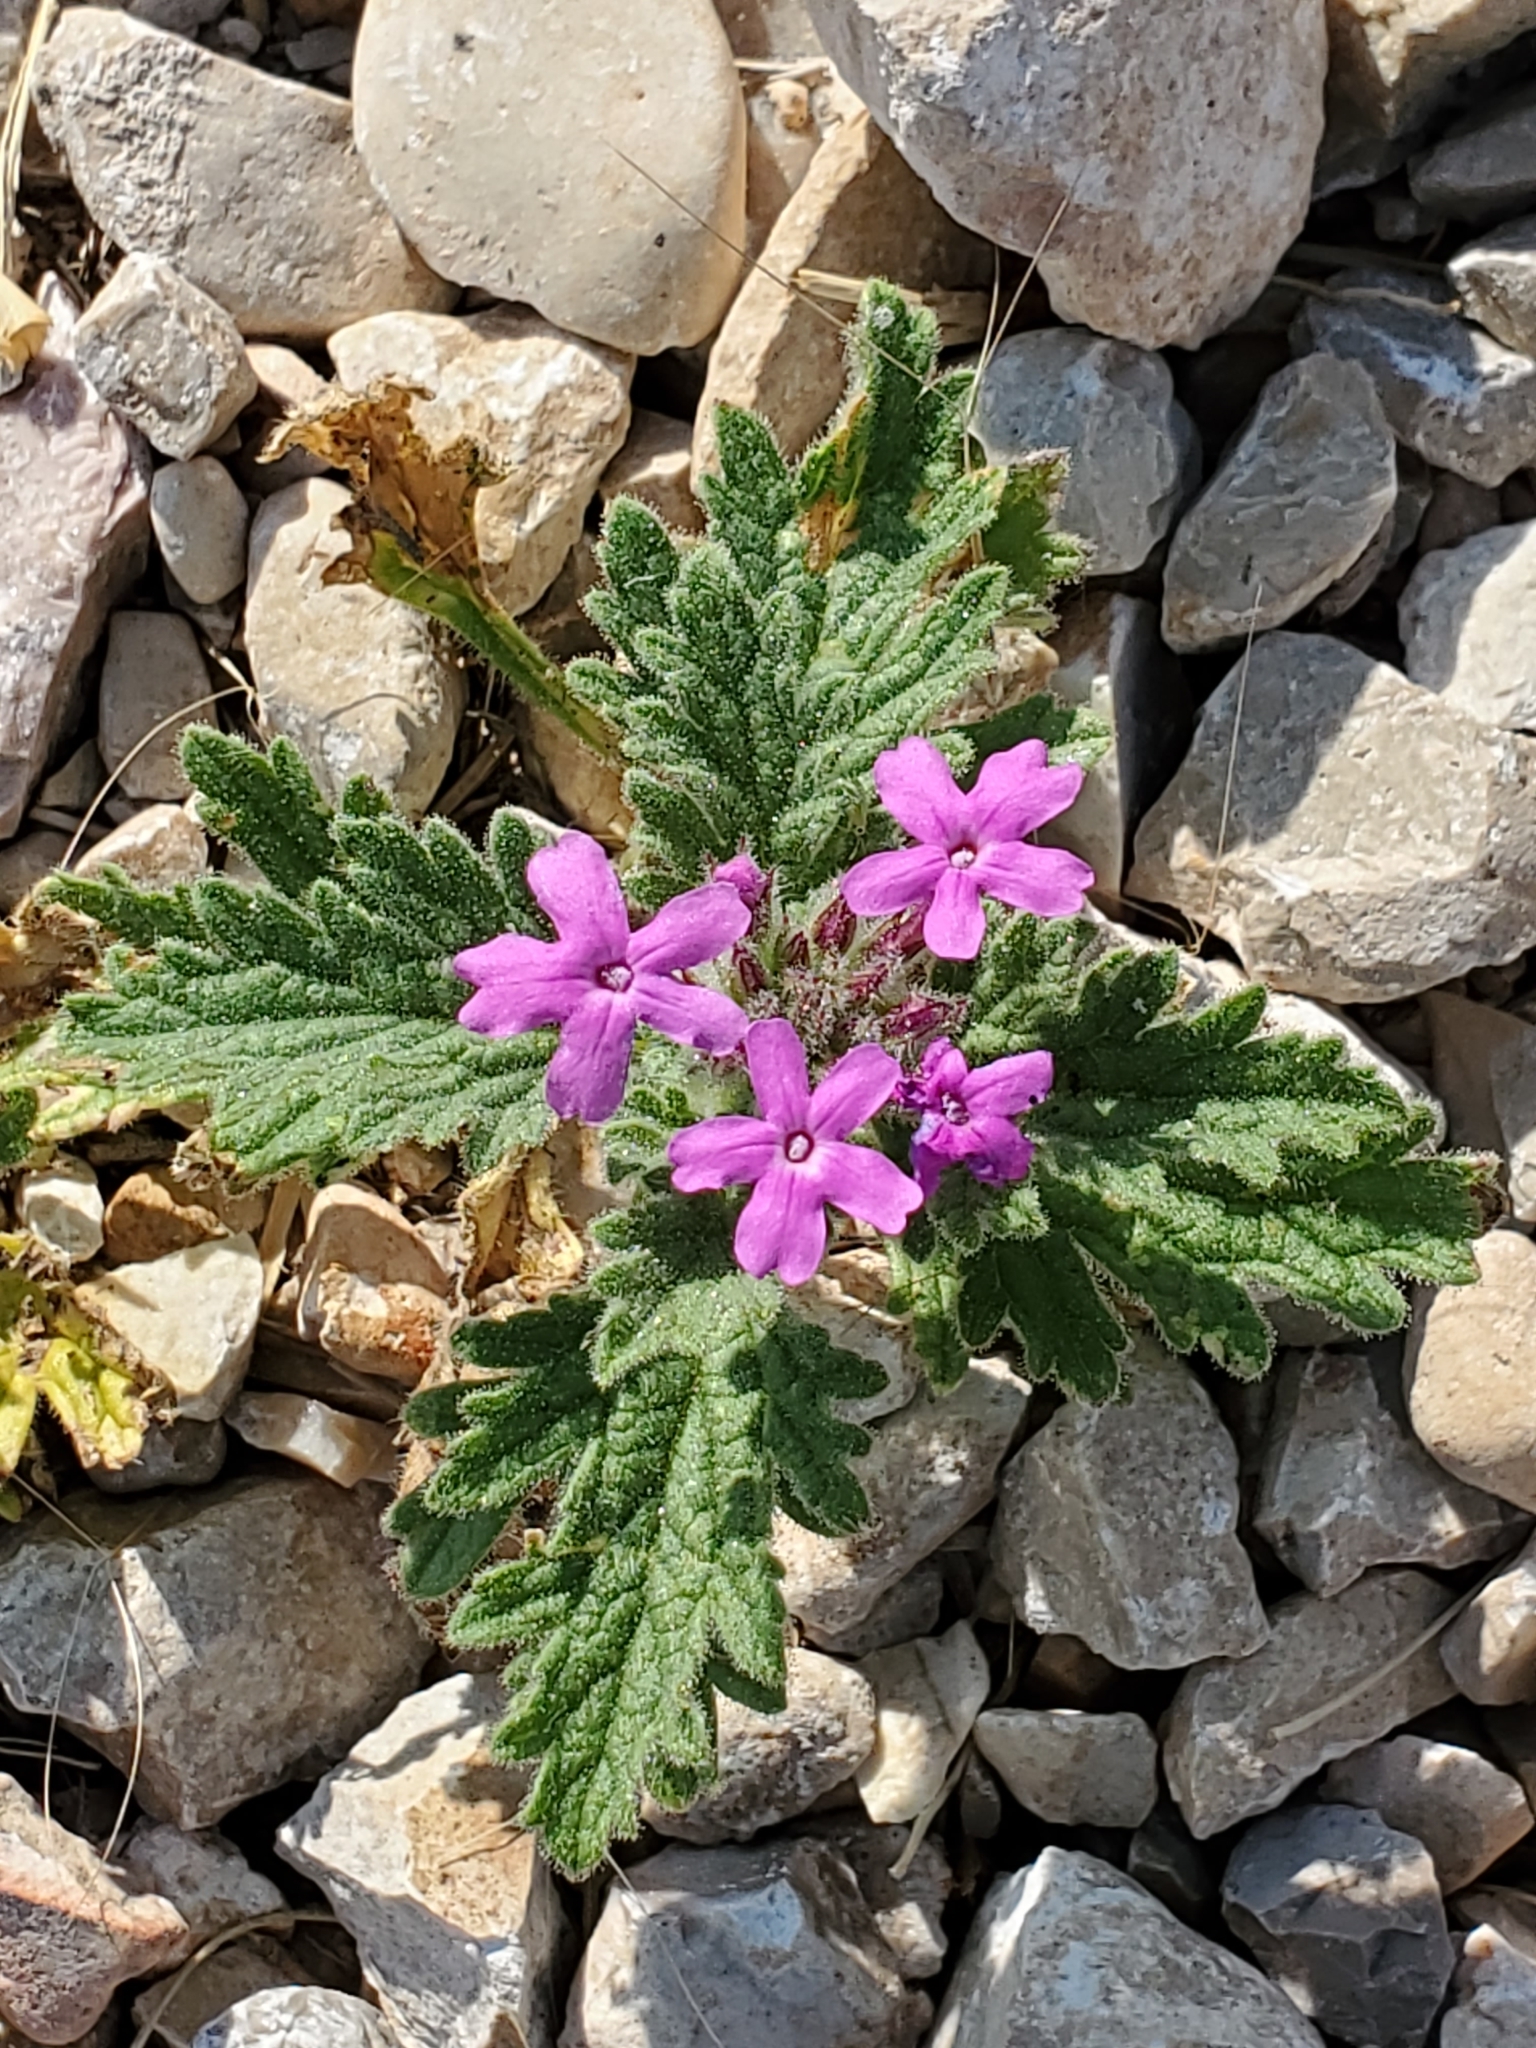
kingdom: Plantae
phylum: Tracheophyta
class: Magnoliopsida
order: Lamiales
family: Verbenaceae
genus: Verbena
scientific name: Verbena pumila
